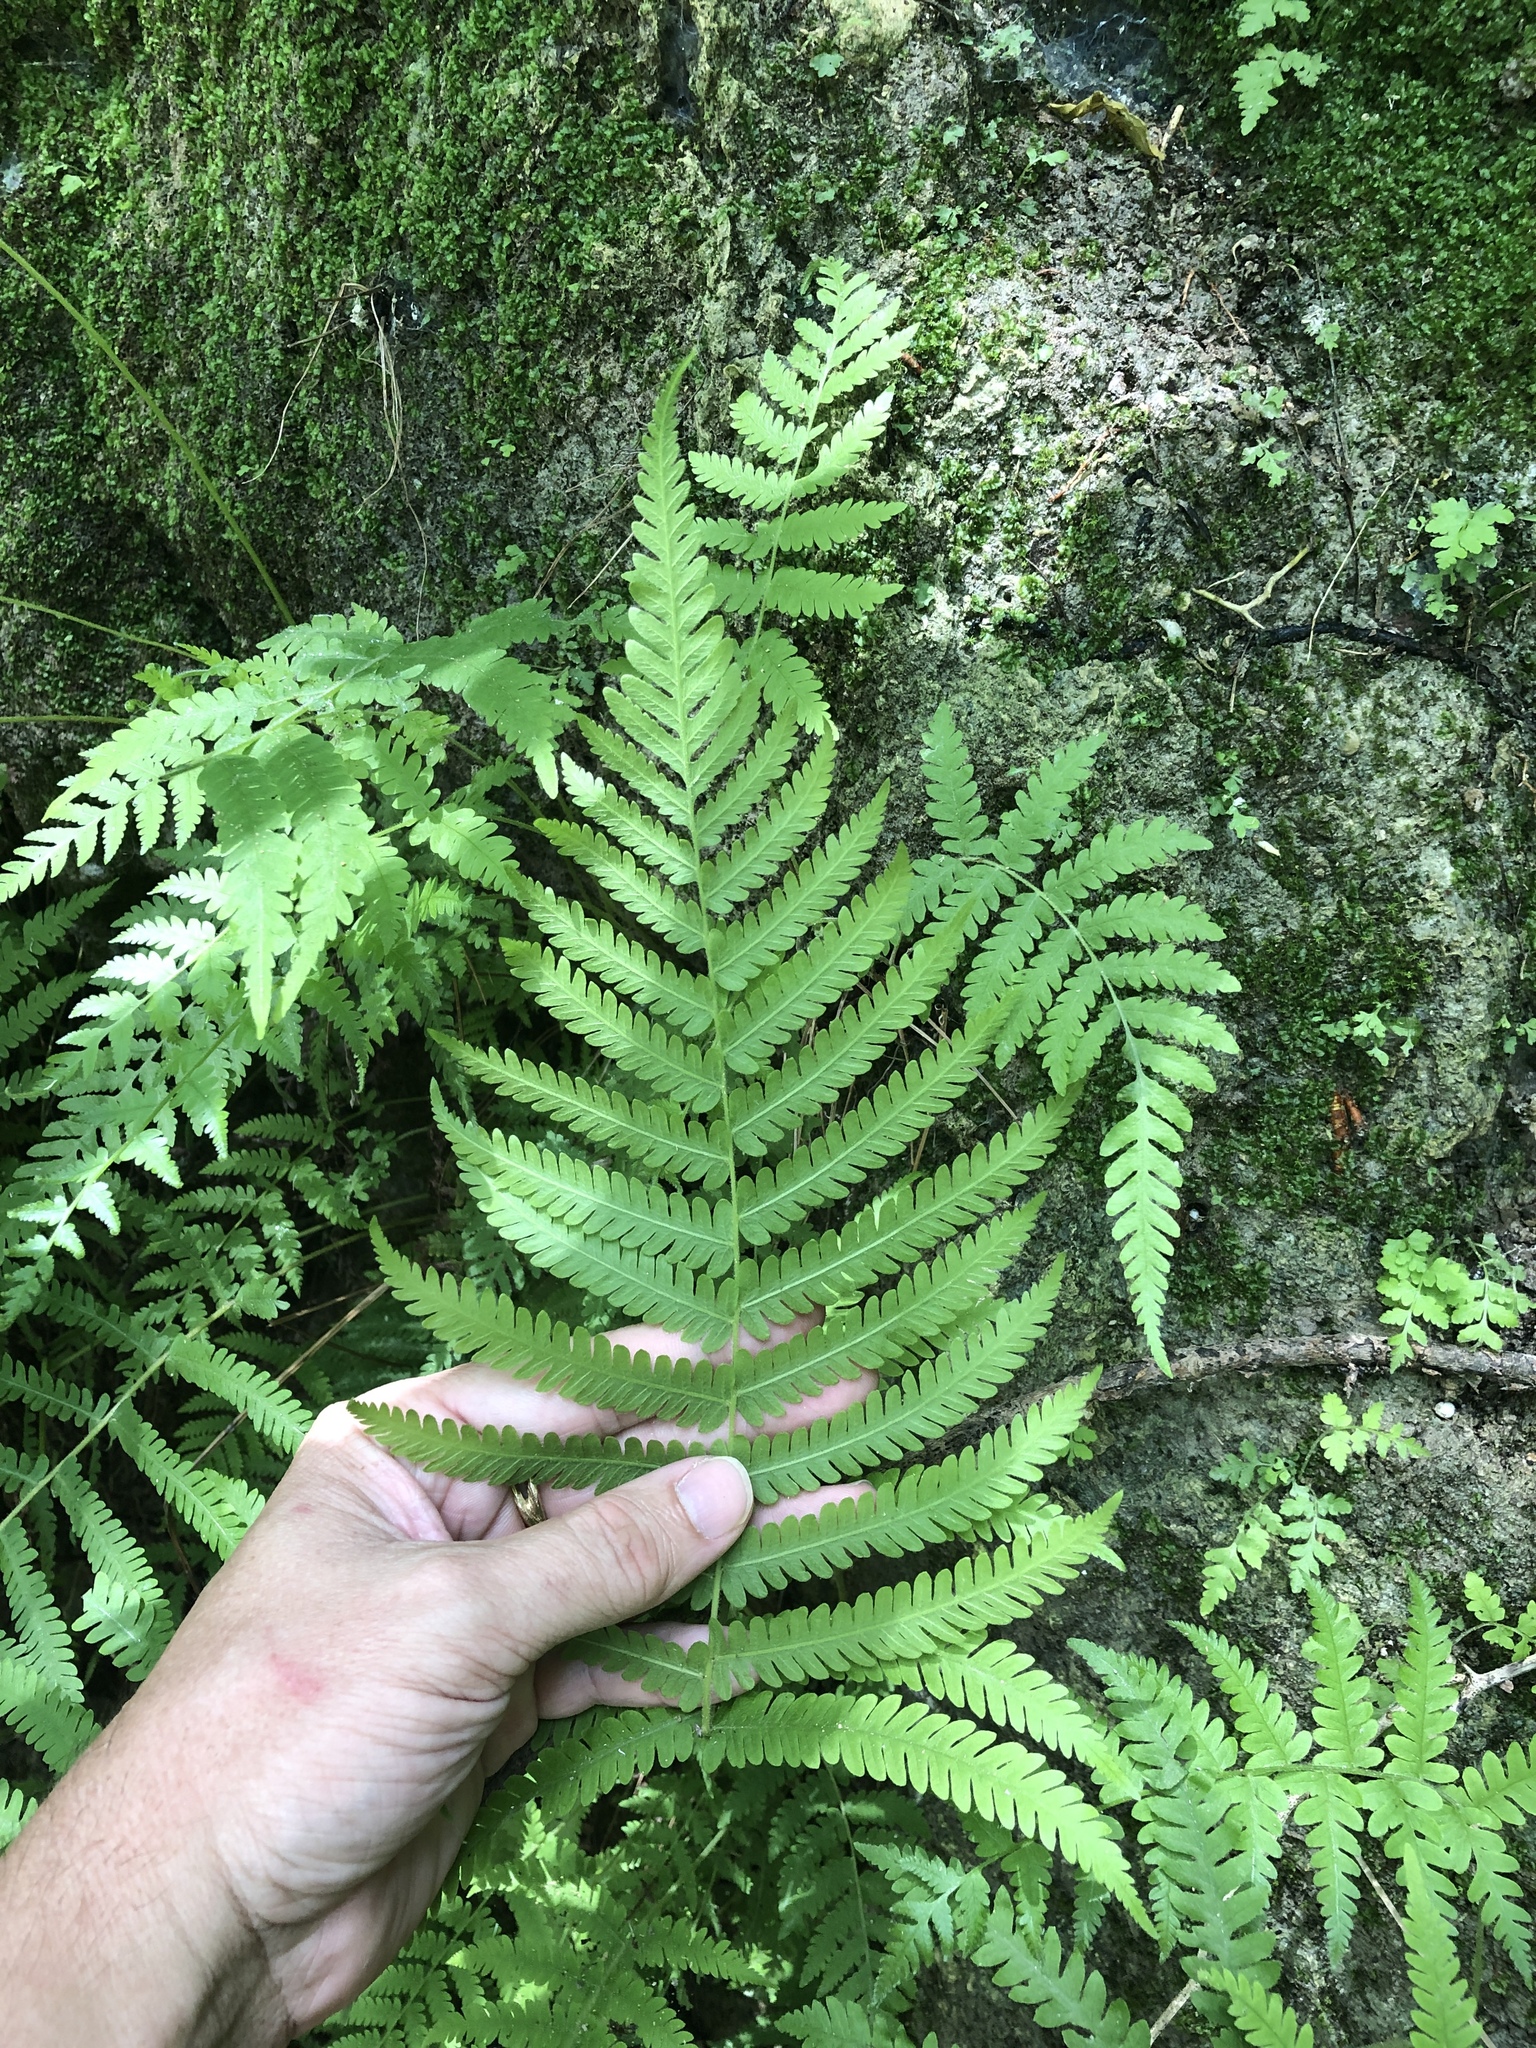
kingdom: Plantae
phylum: Tracheophyta
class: Polypodiopsida
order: Polypodiales
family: Thelypteridaceae
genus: Pelazoneuron
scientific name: Pelazoneuron kunthii
